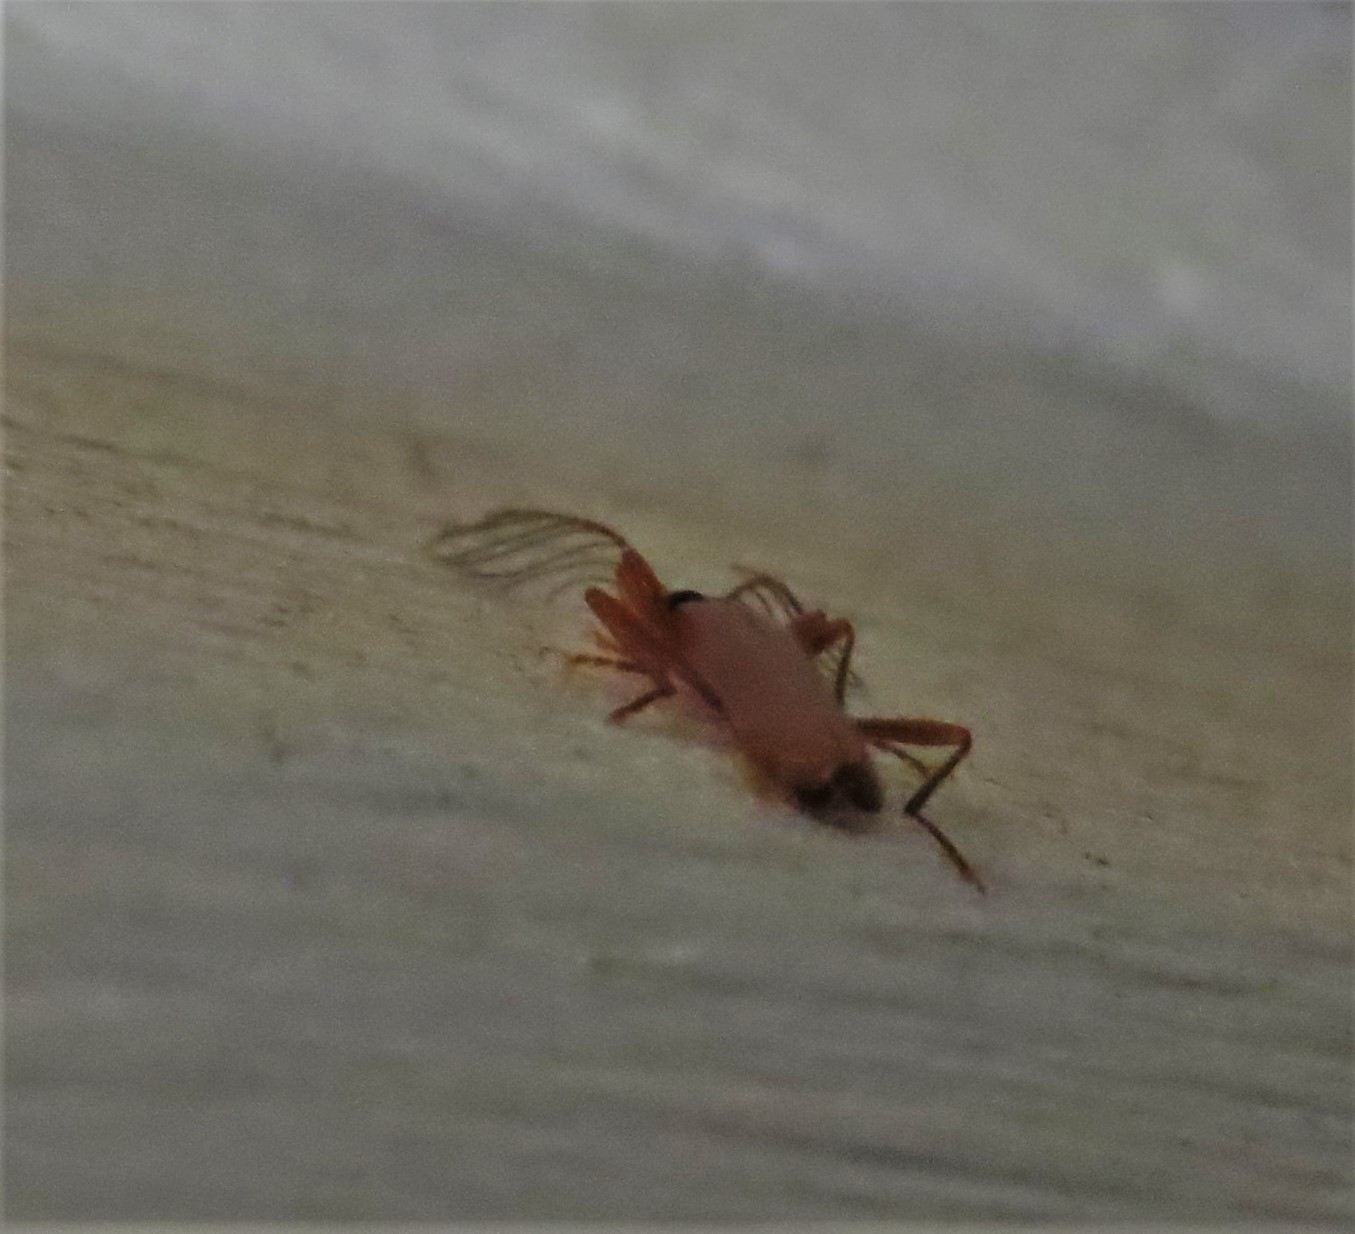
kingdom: Animalia
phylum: Arthropoda
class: Insecta
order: Coleoptera
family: Pyrochroidae
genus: Dendroides
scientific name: Dendroides concolor
